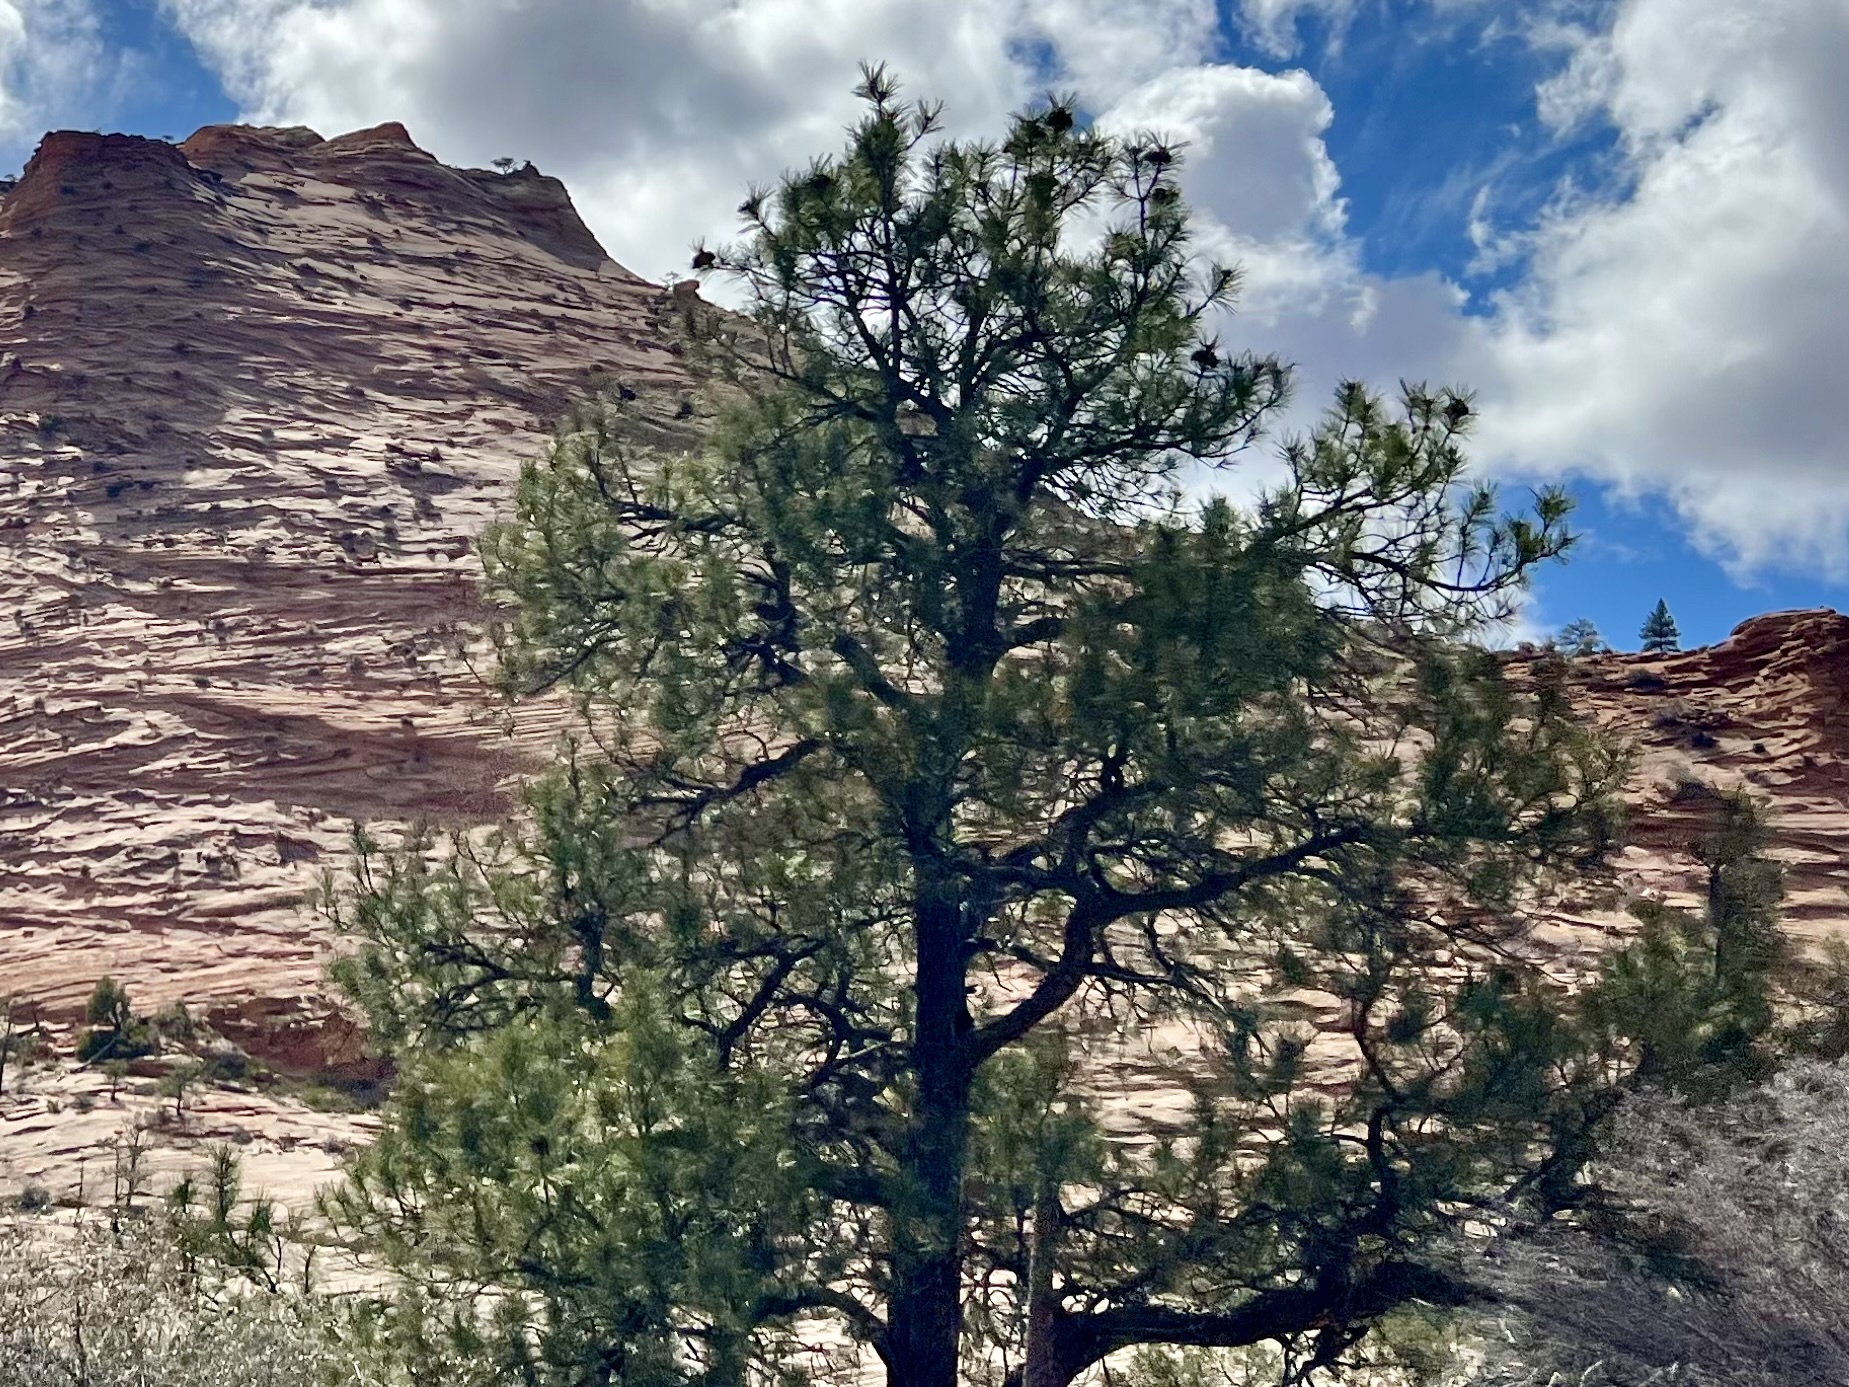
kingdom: Plantae
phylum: Tracheophyta
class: Pinopsida
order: Pinales
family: Pinaceae
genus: Pinus
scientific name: Pinus ponderosa
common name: Western yellow-pine
